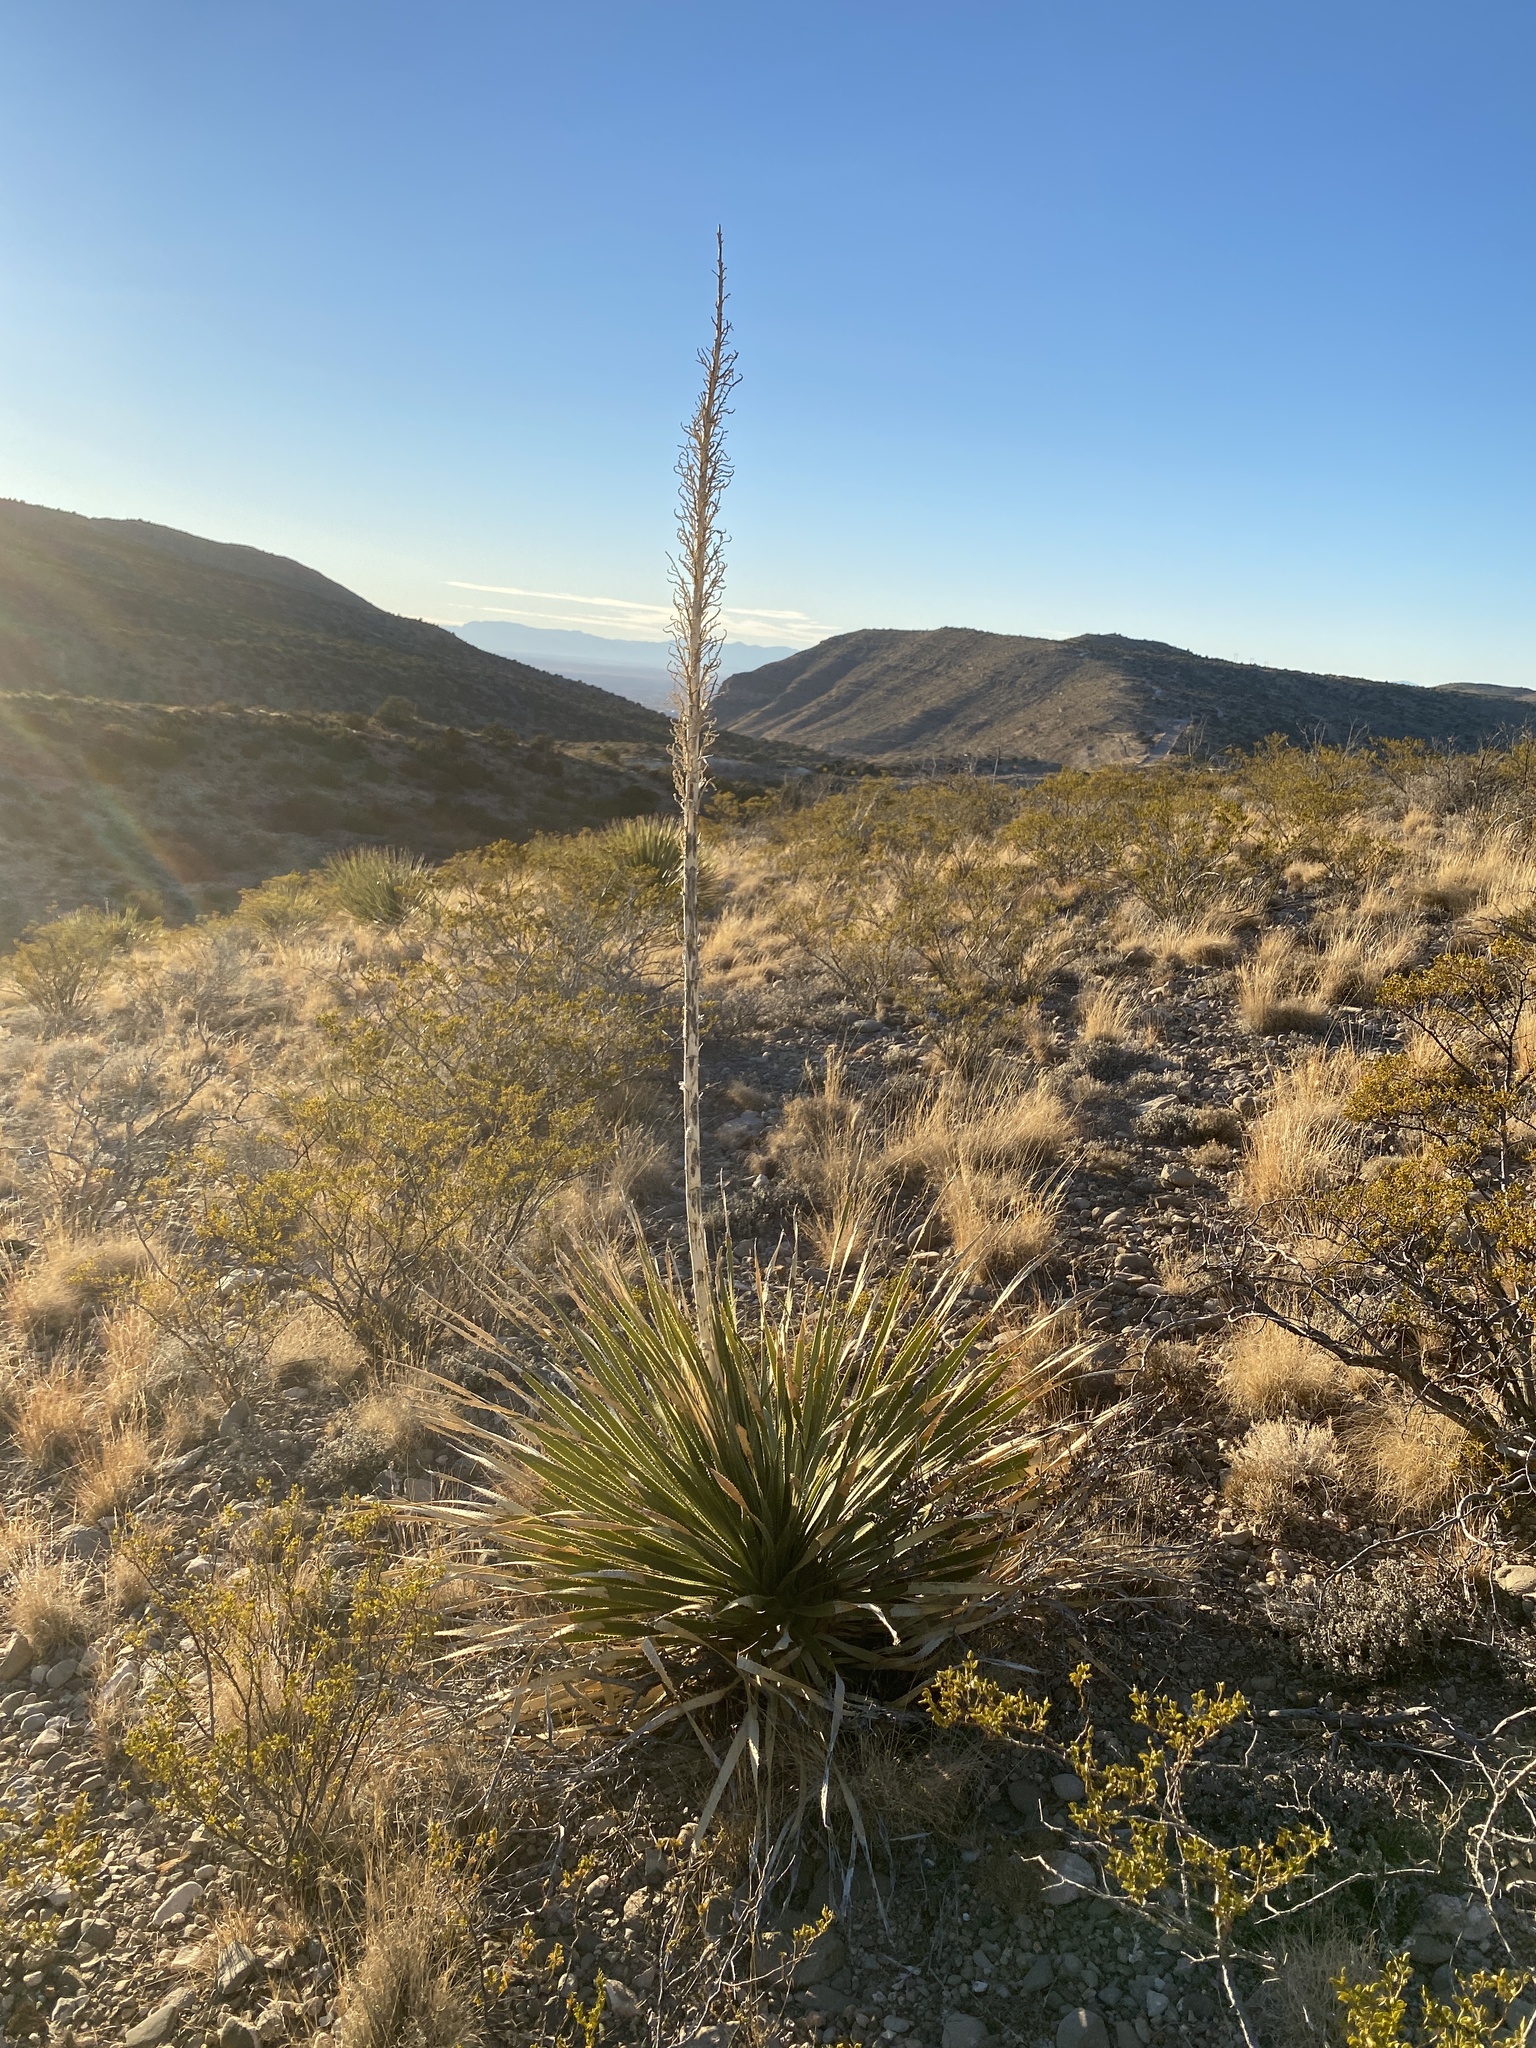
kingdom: Plantae
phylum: Tracheophyta
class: Liliopsida
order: Asparagales
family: Asparagaceae
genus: Dasylirion
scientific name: Dasylirion wheeleri
